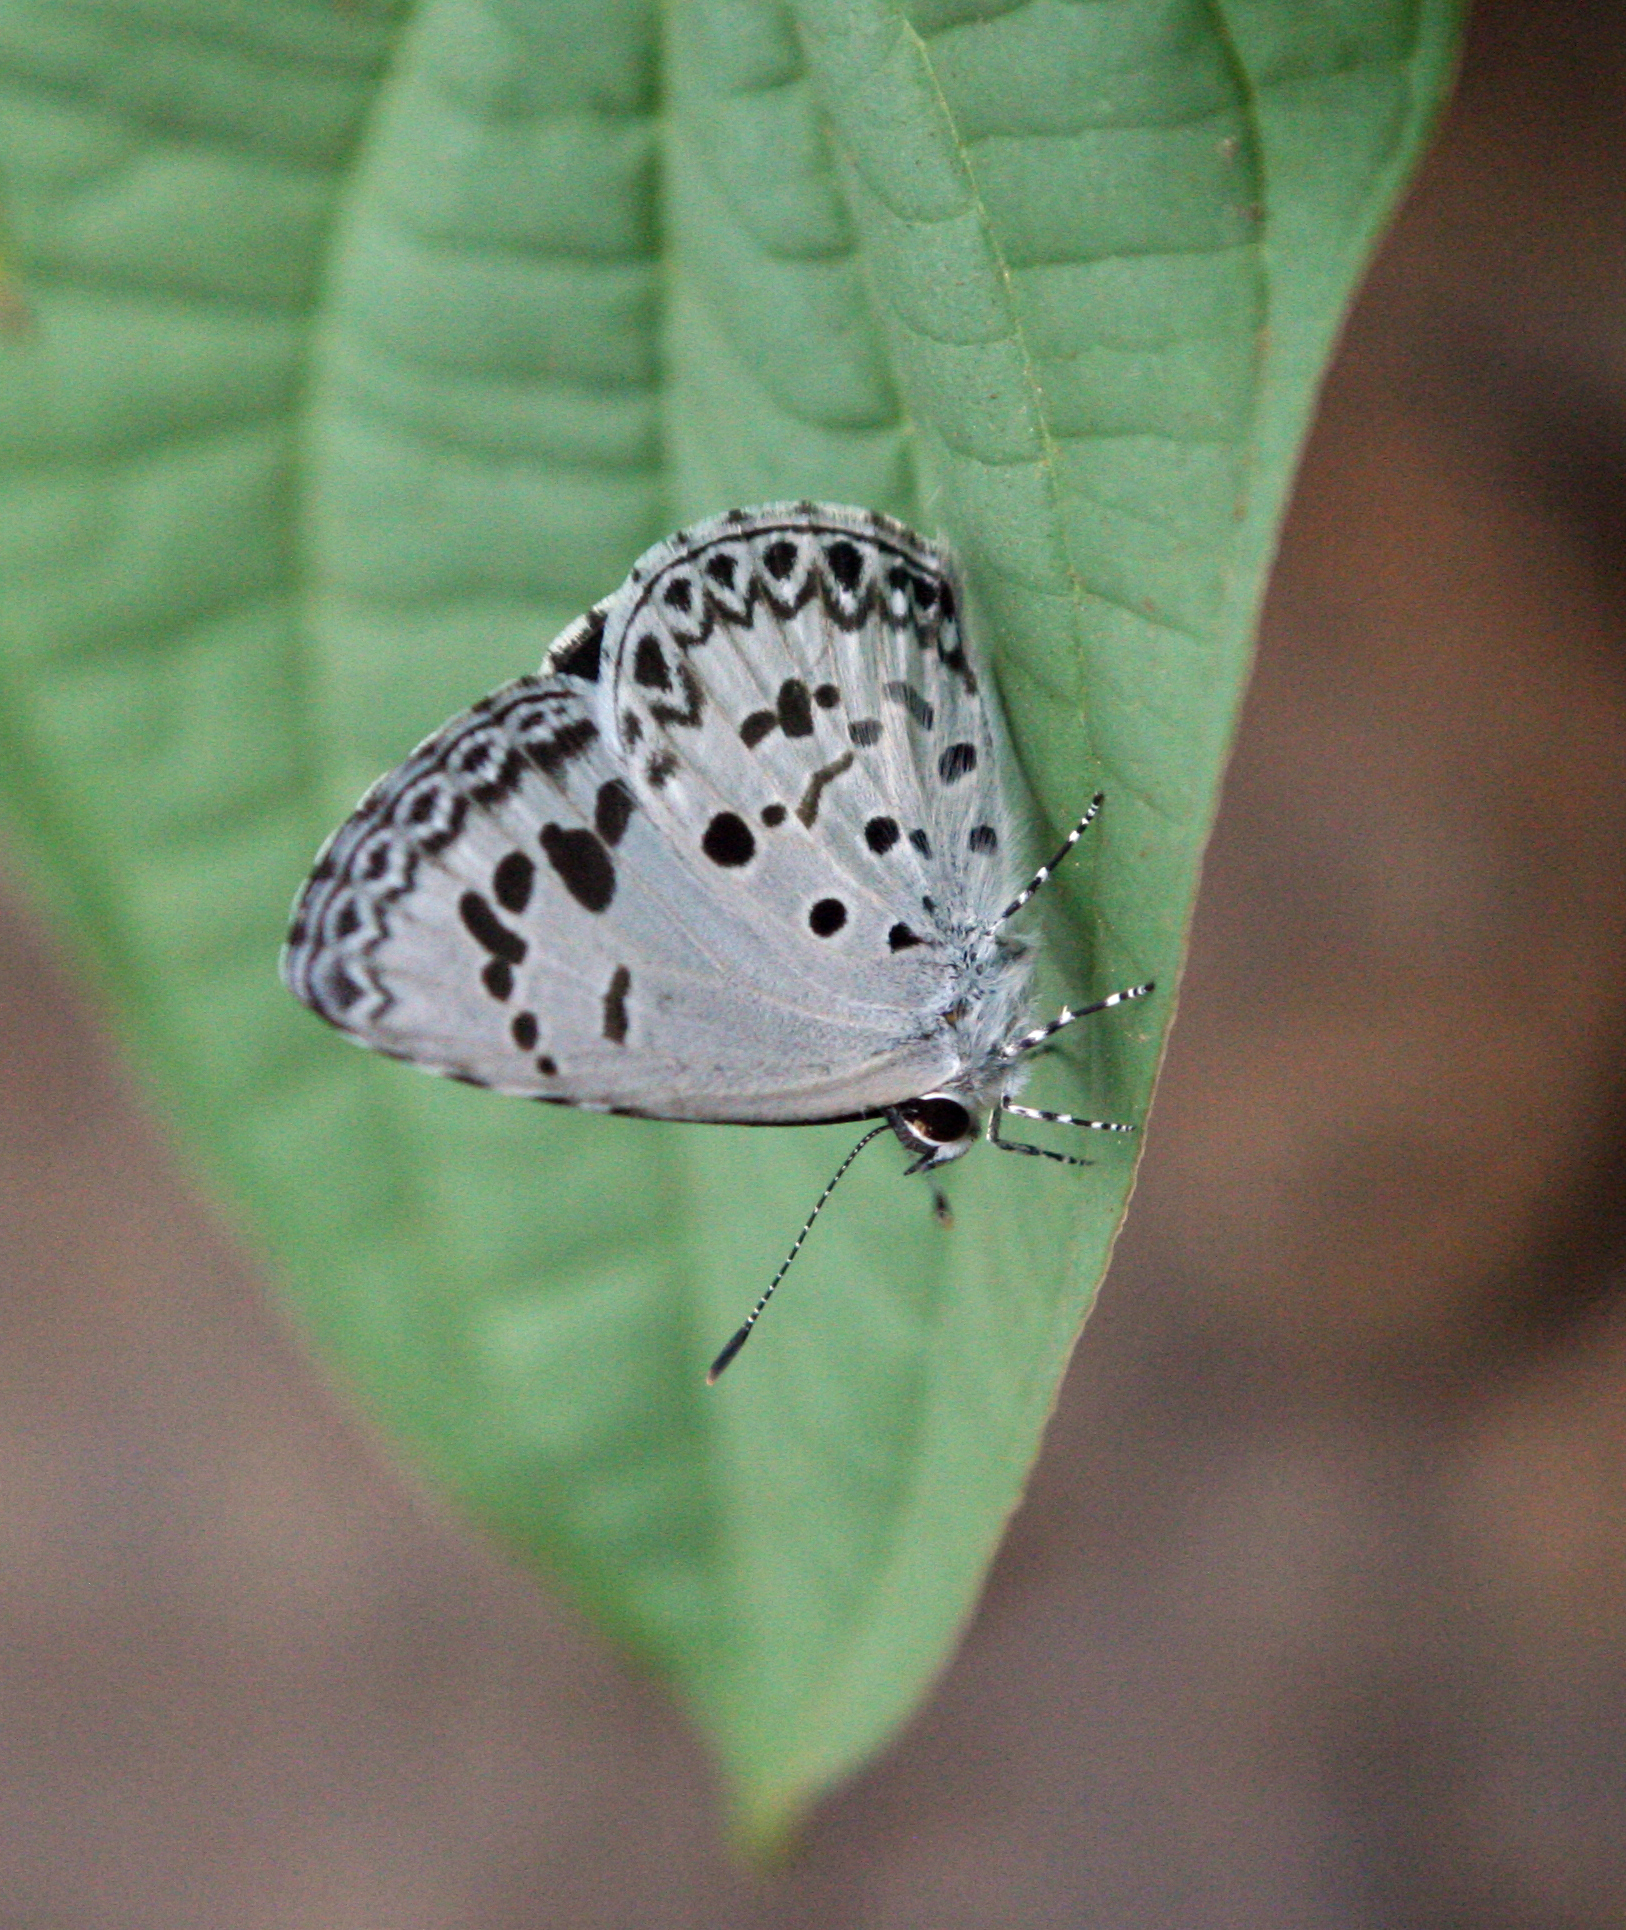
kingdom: Animalia
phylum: Arthropoda
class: Insecta
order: Lepidoptera
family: Lycaenidae
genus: Acytolepis
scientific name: Acytolepis puspa
